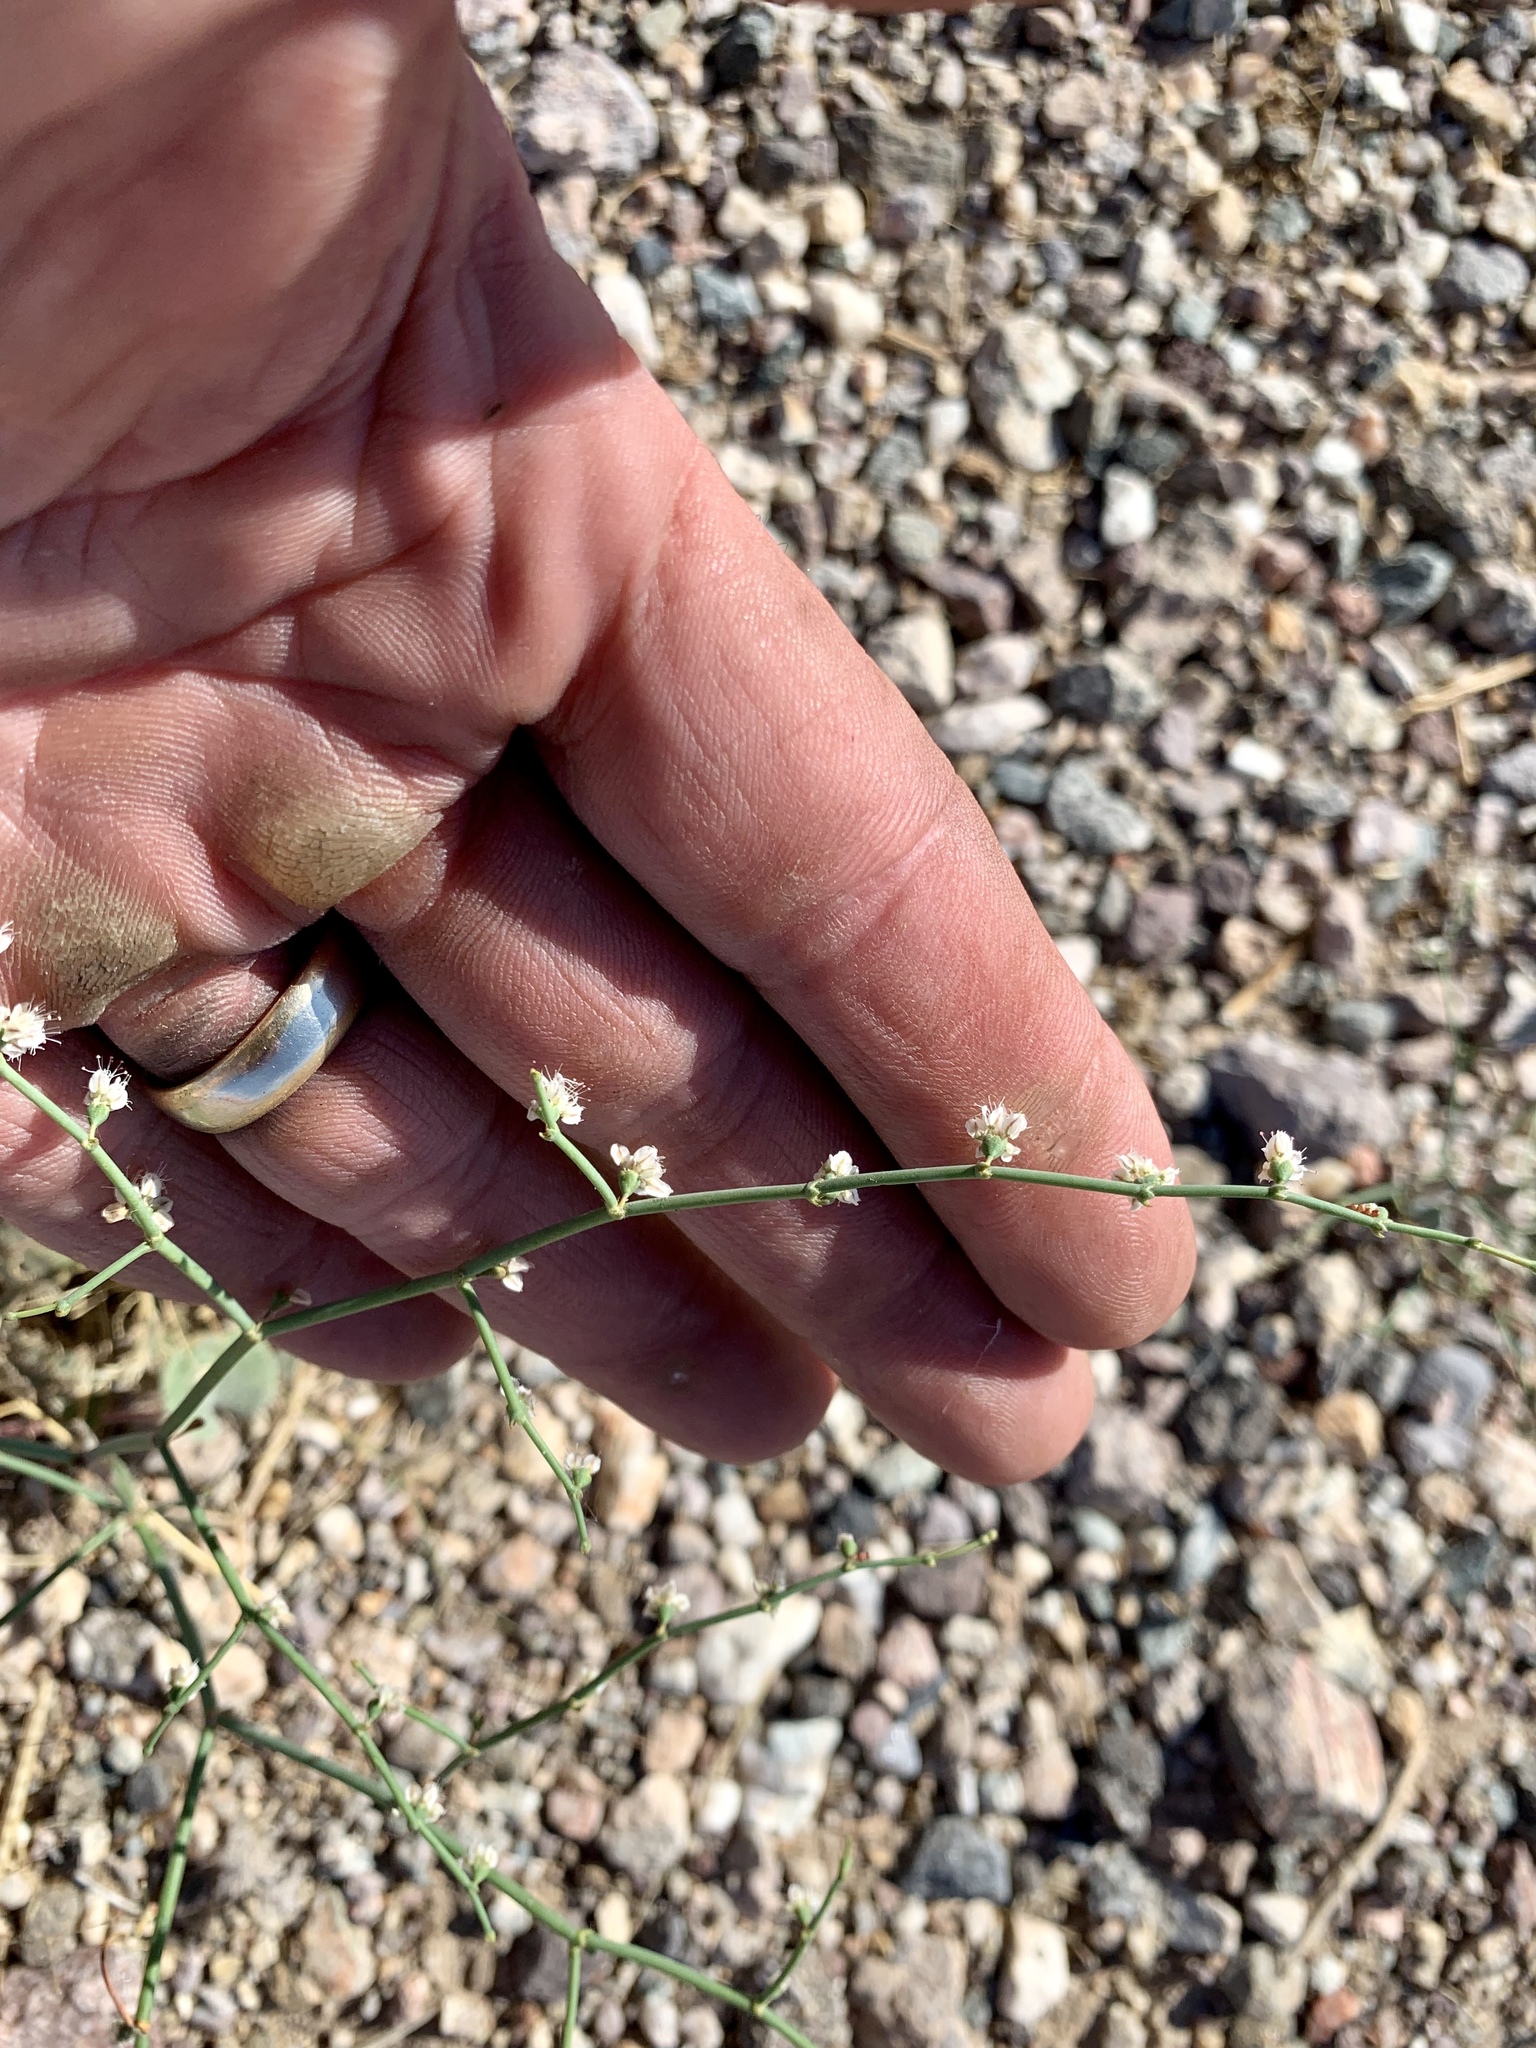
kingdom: Plantae
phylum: Tracheophyta
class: Magnoliopsida
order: Caryophyllales
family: Polygonaceae
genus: Eriogonum
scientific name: Eriogonum deflexum
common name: Skeleton-weed
